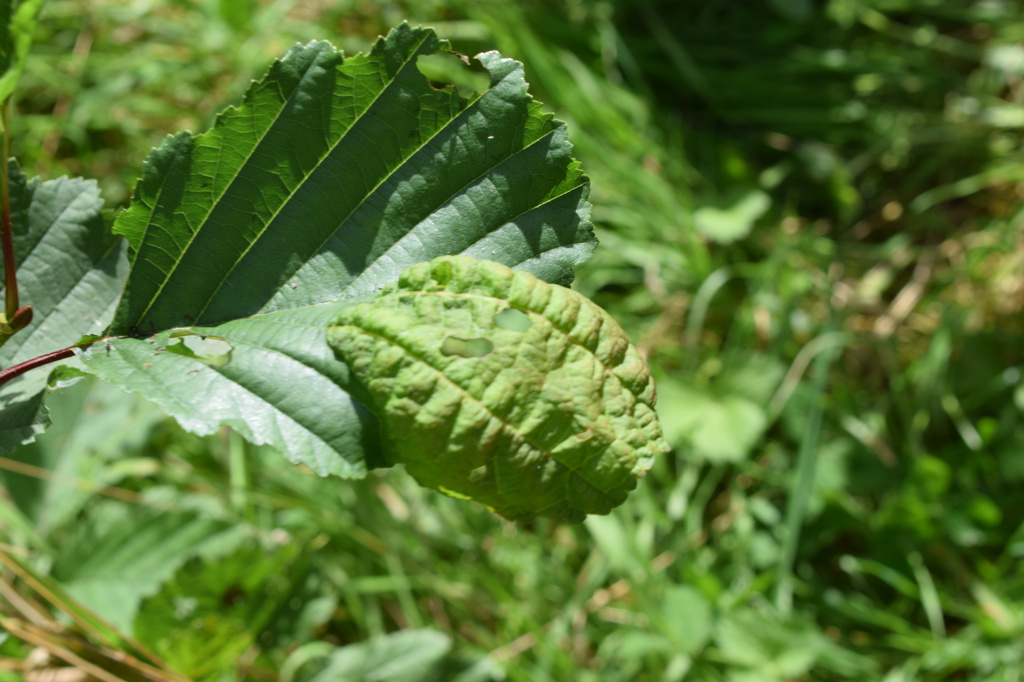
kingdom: Fungi
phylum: Ascomycota
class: Taphrinomycetes
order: Taphrinales
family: Taphrinaceae
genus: Taphrina
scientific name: Taphrina tosquinetii
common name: Alder wrinkle
